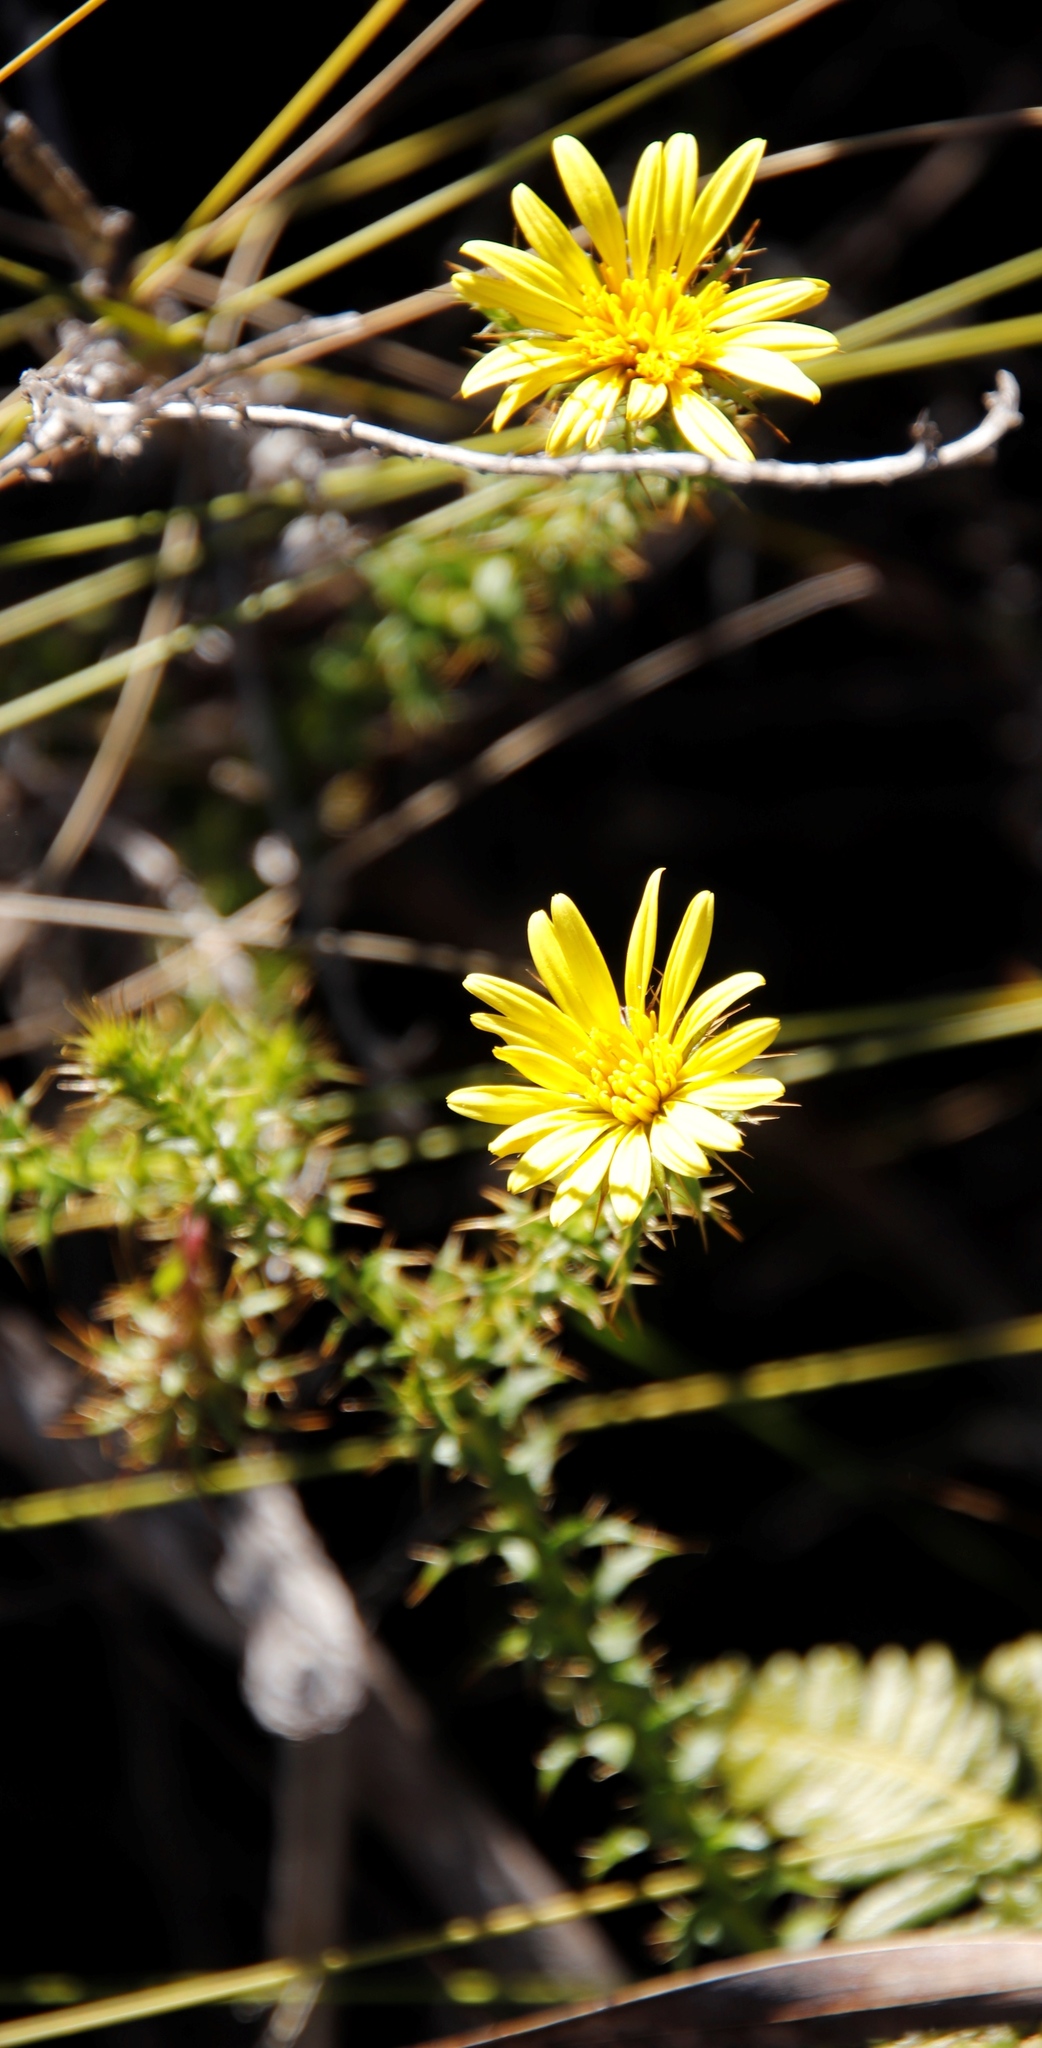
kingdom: Plantae
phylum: Tracheophyta
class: Magnoliopsida
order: Asterales
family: Asteraceae
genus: Cullumia
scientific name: Cullumia setosa
